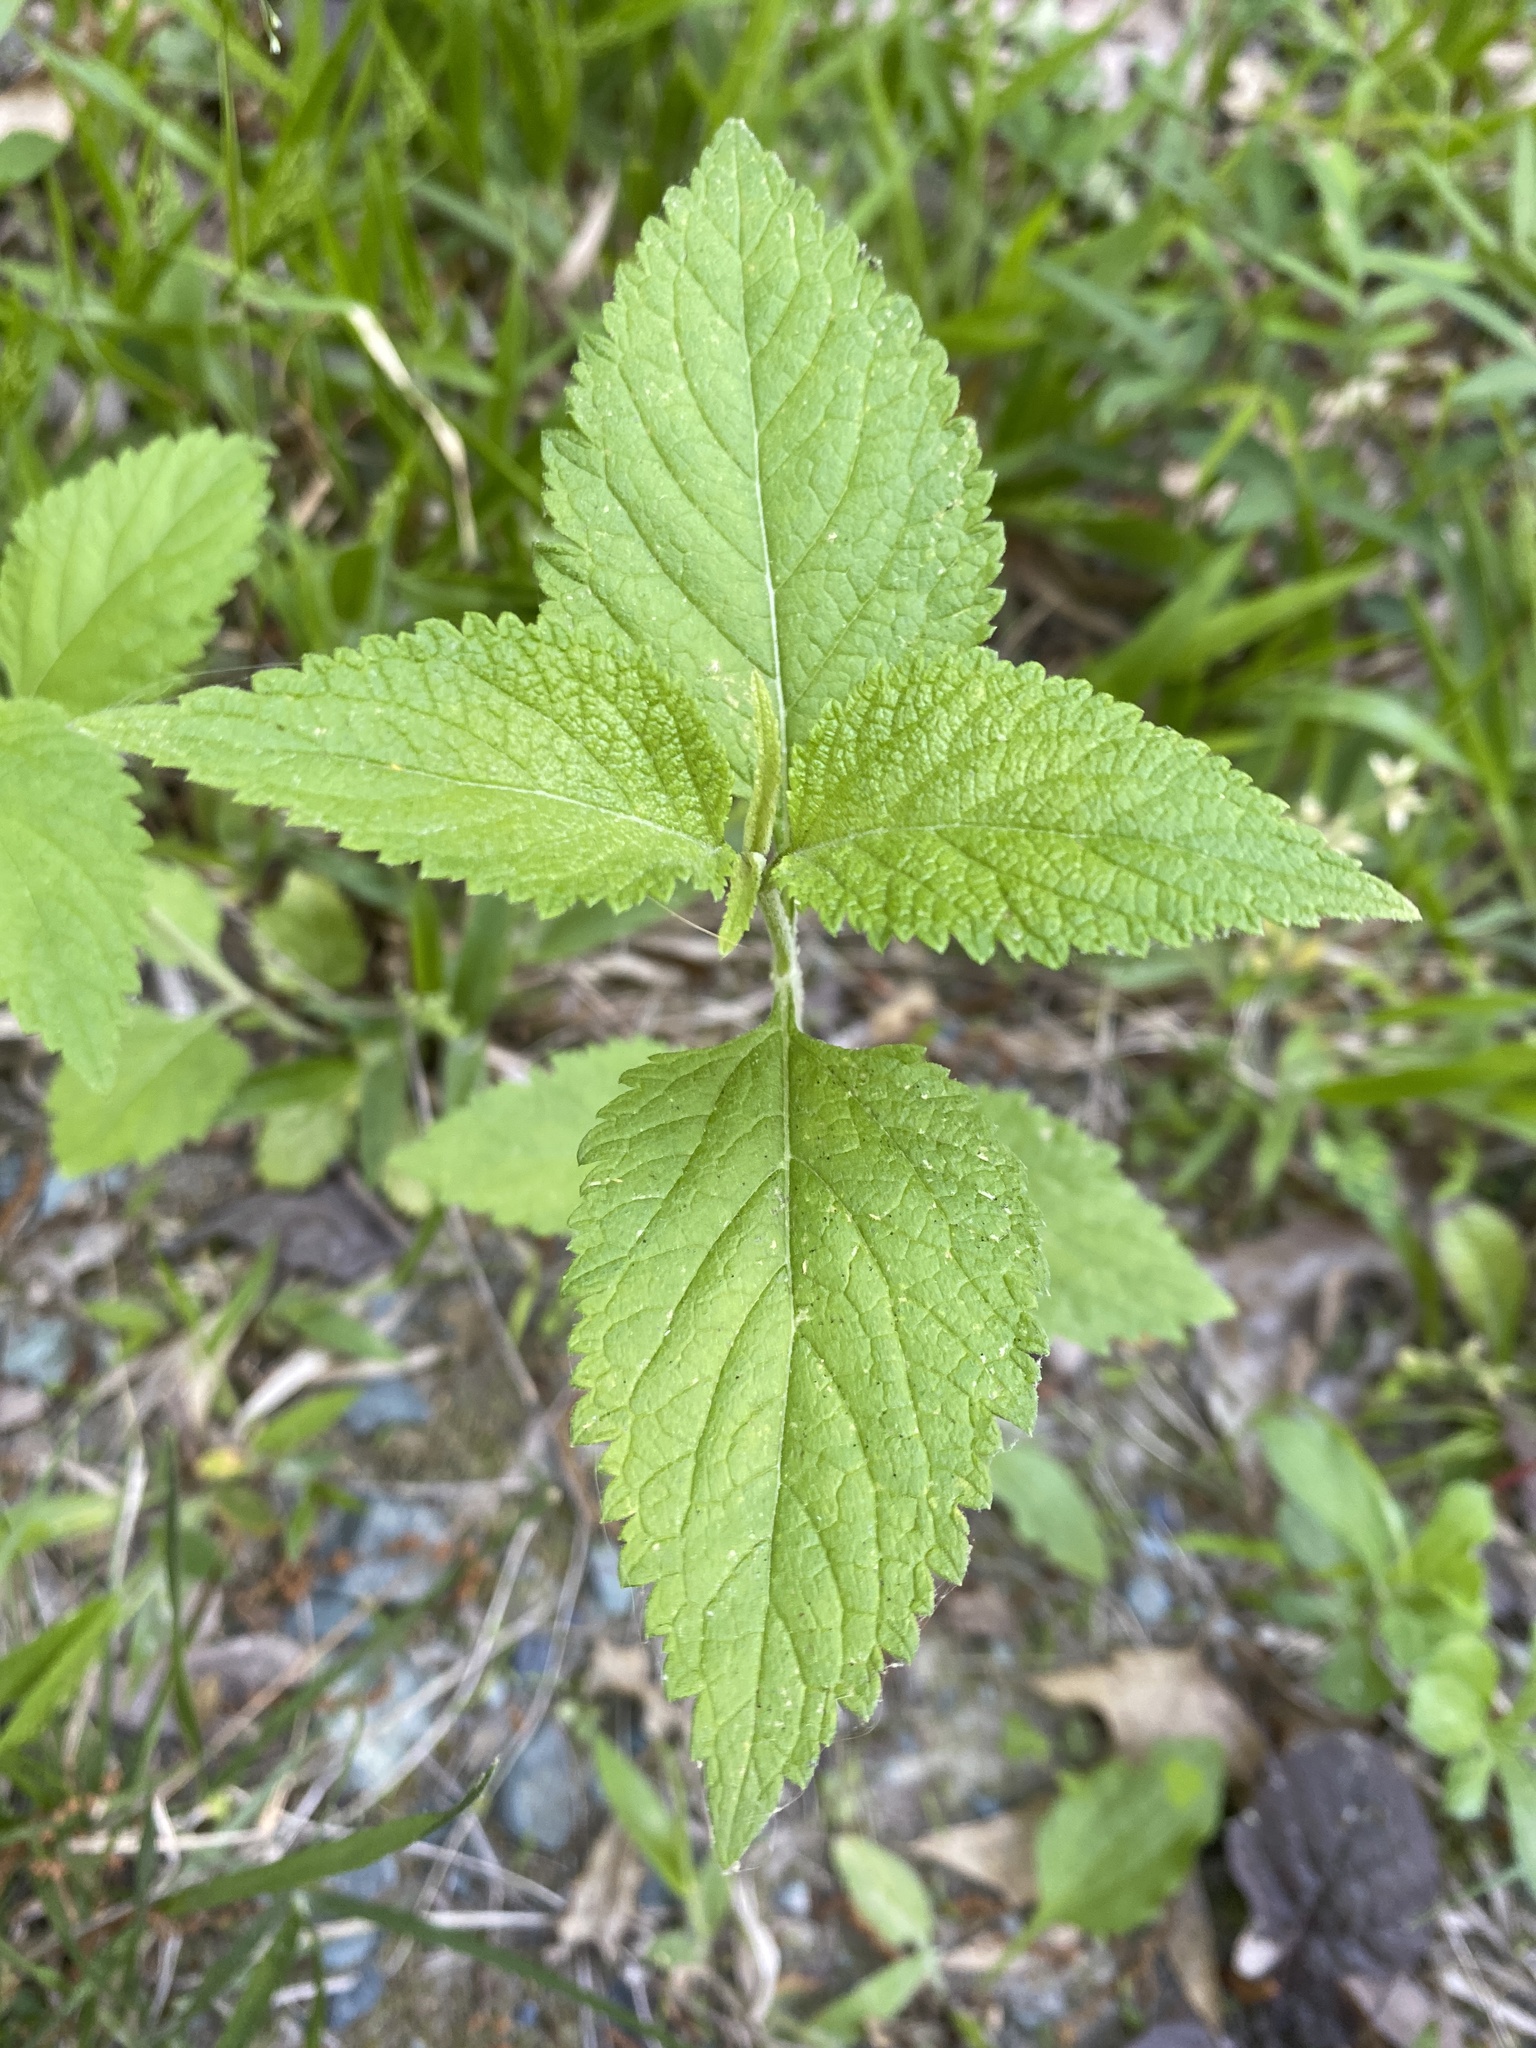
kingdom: Plantae
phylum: Tracheophyta
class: Magnoliopsida
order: Lamiales
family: Verbenaceae
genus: Verbena
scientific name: Verbena urticifolia
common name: Nettle-leaved vervain
